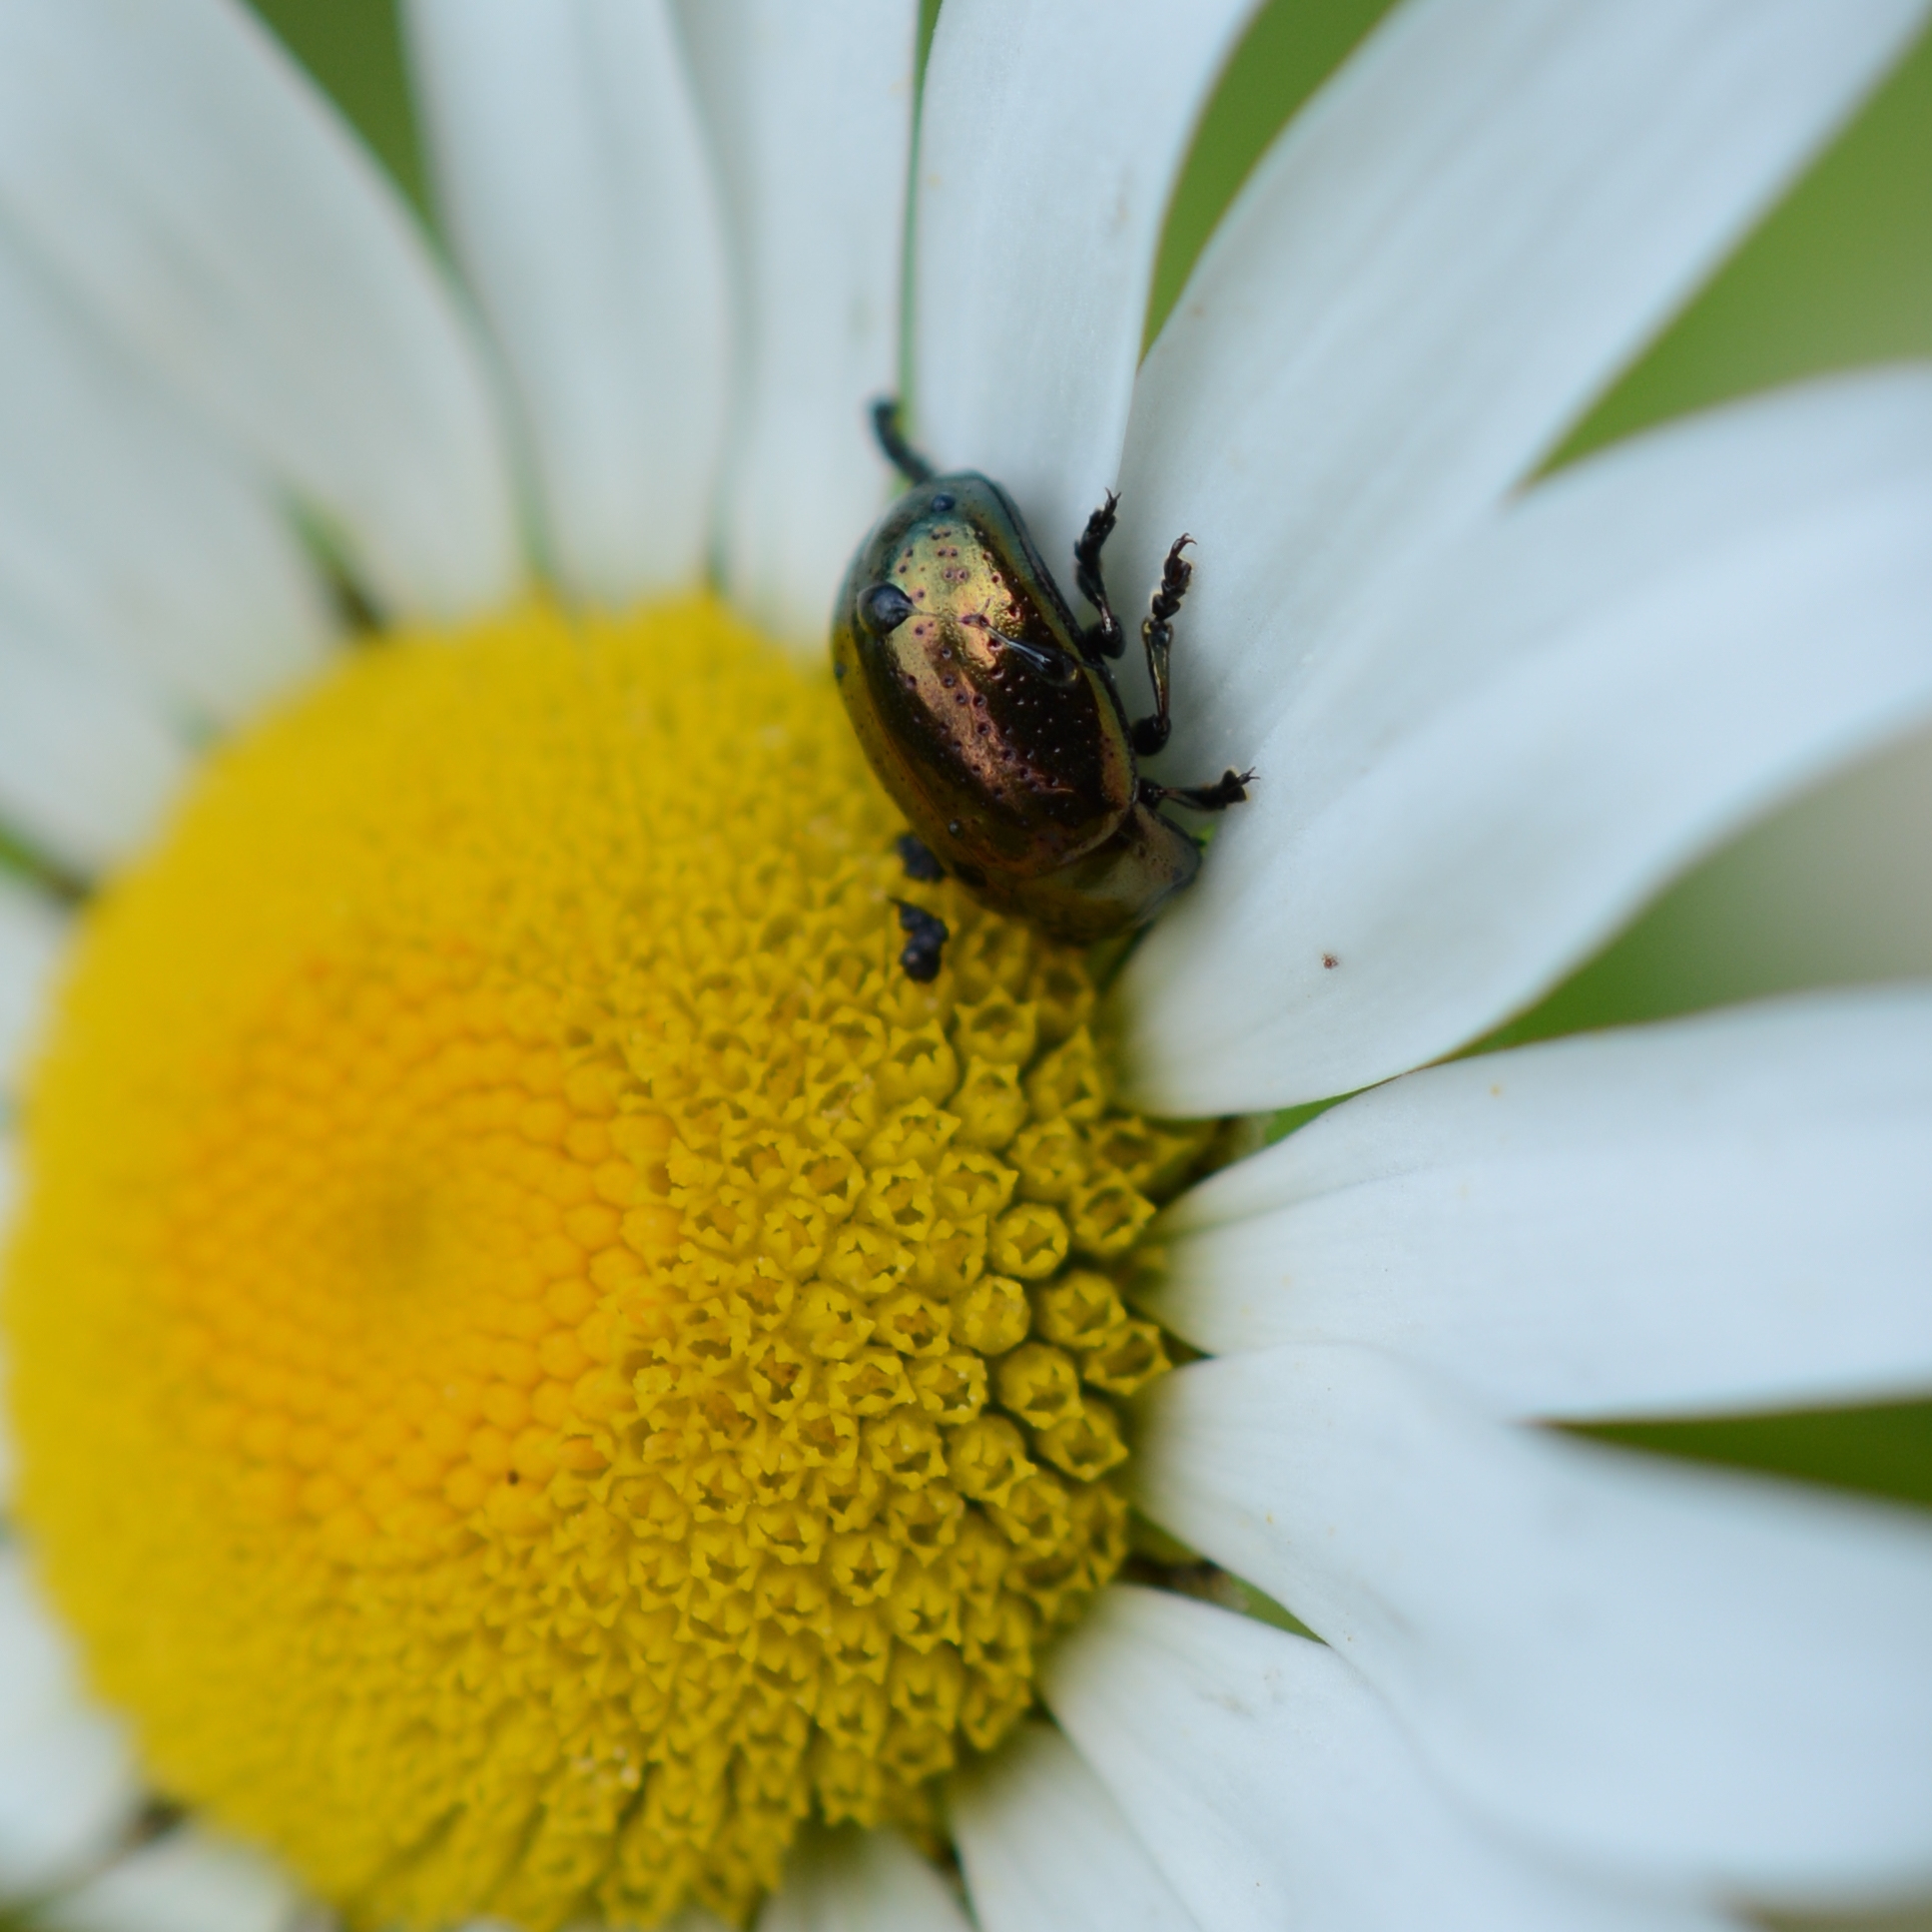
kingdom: Animalia
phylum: Arthropoda
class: Insecta
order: Coleoptera
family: Chrysomelidae
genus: Chrysolina
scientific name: Chrysolina hyperici
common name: St. johnswort beetle
